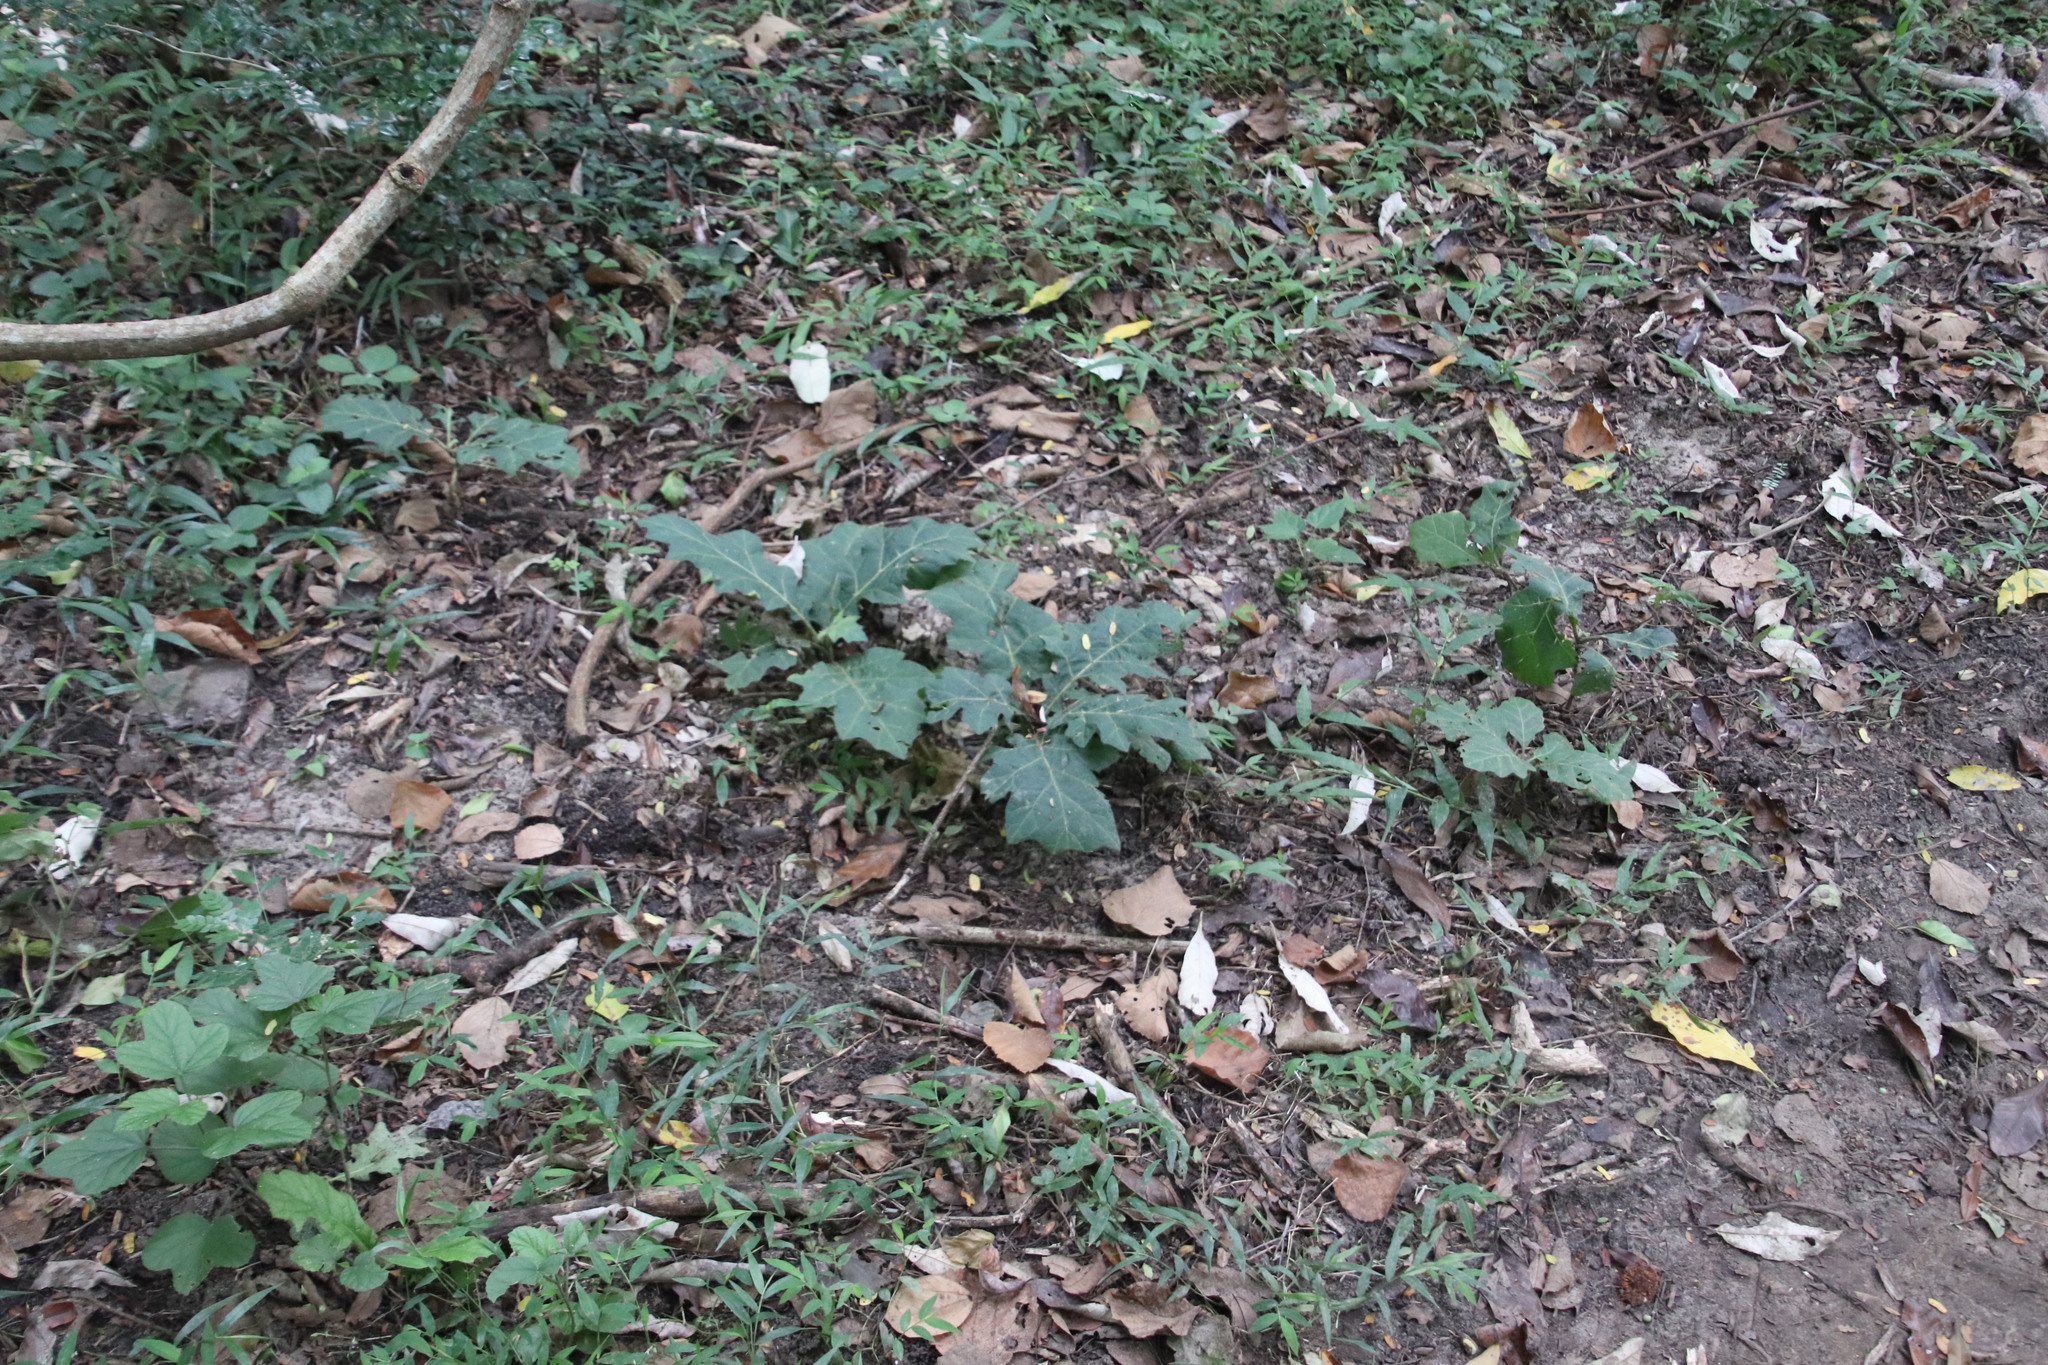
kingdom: Plantae
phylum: Tracheophyta
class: Magnoliopsida
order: Solanales
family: Solanaceae
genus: Solanum
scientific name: Solanum chrysotrichum
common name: Nightshade
